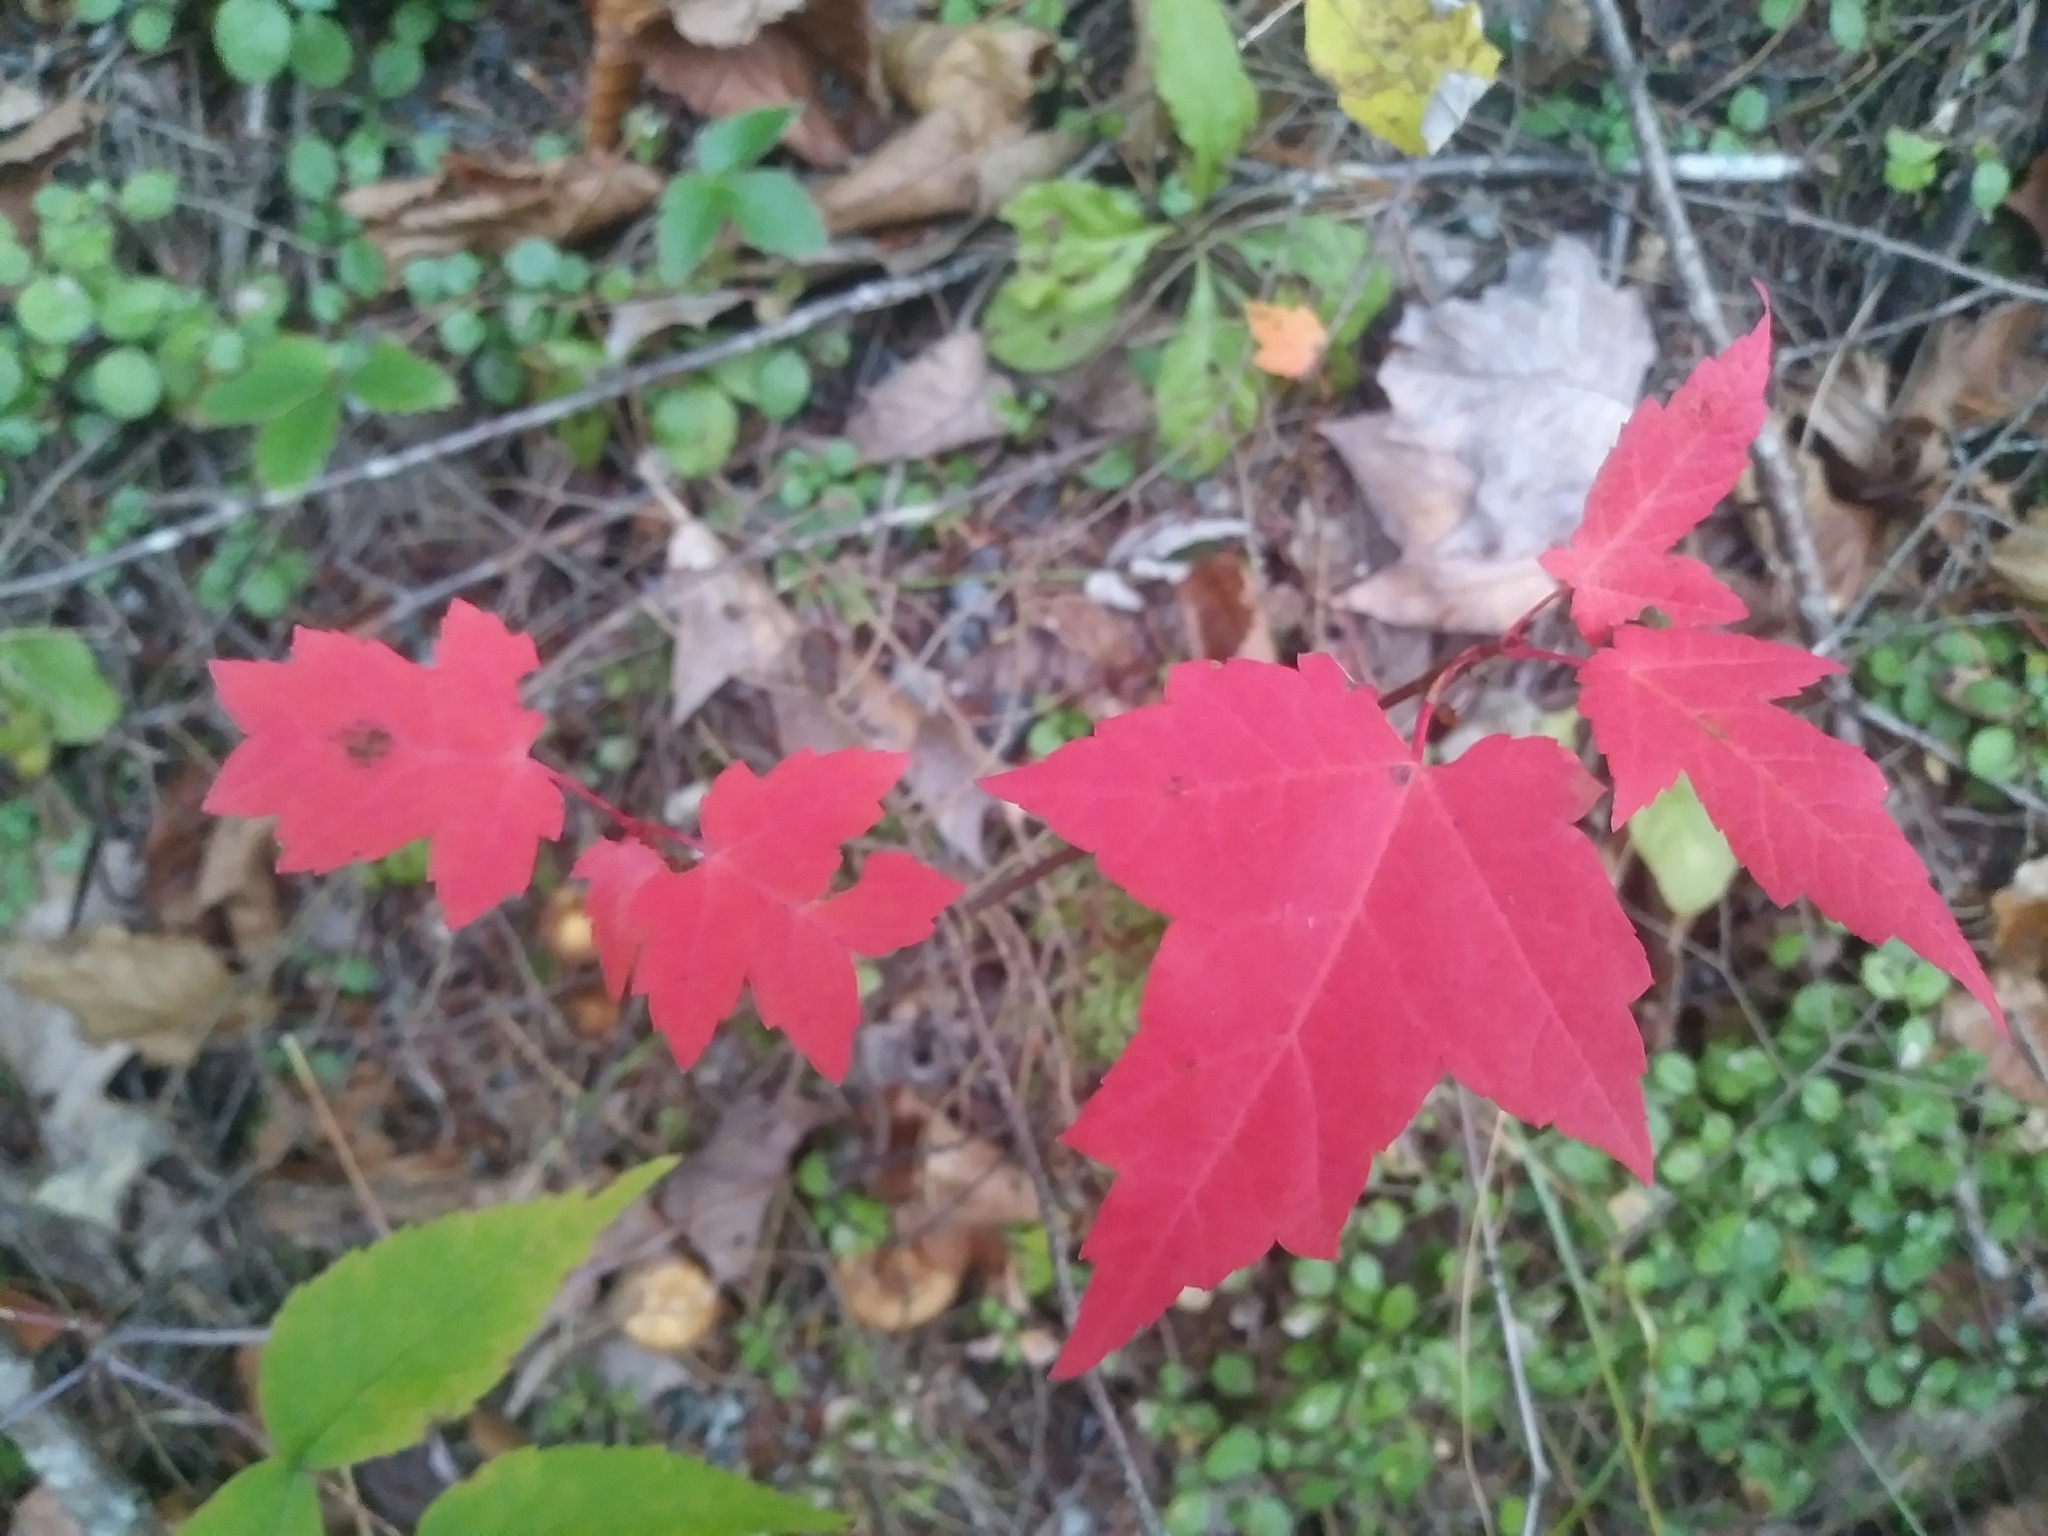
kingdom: Plantae
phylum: Tracheophyta
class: Magnoliopsida
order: Sapindales
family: Sapindaceae
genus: Acer
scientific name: Acer rubrum
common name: Red maple
